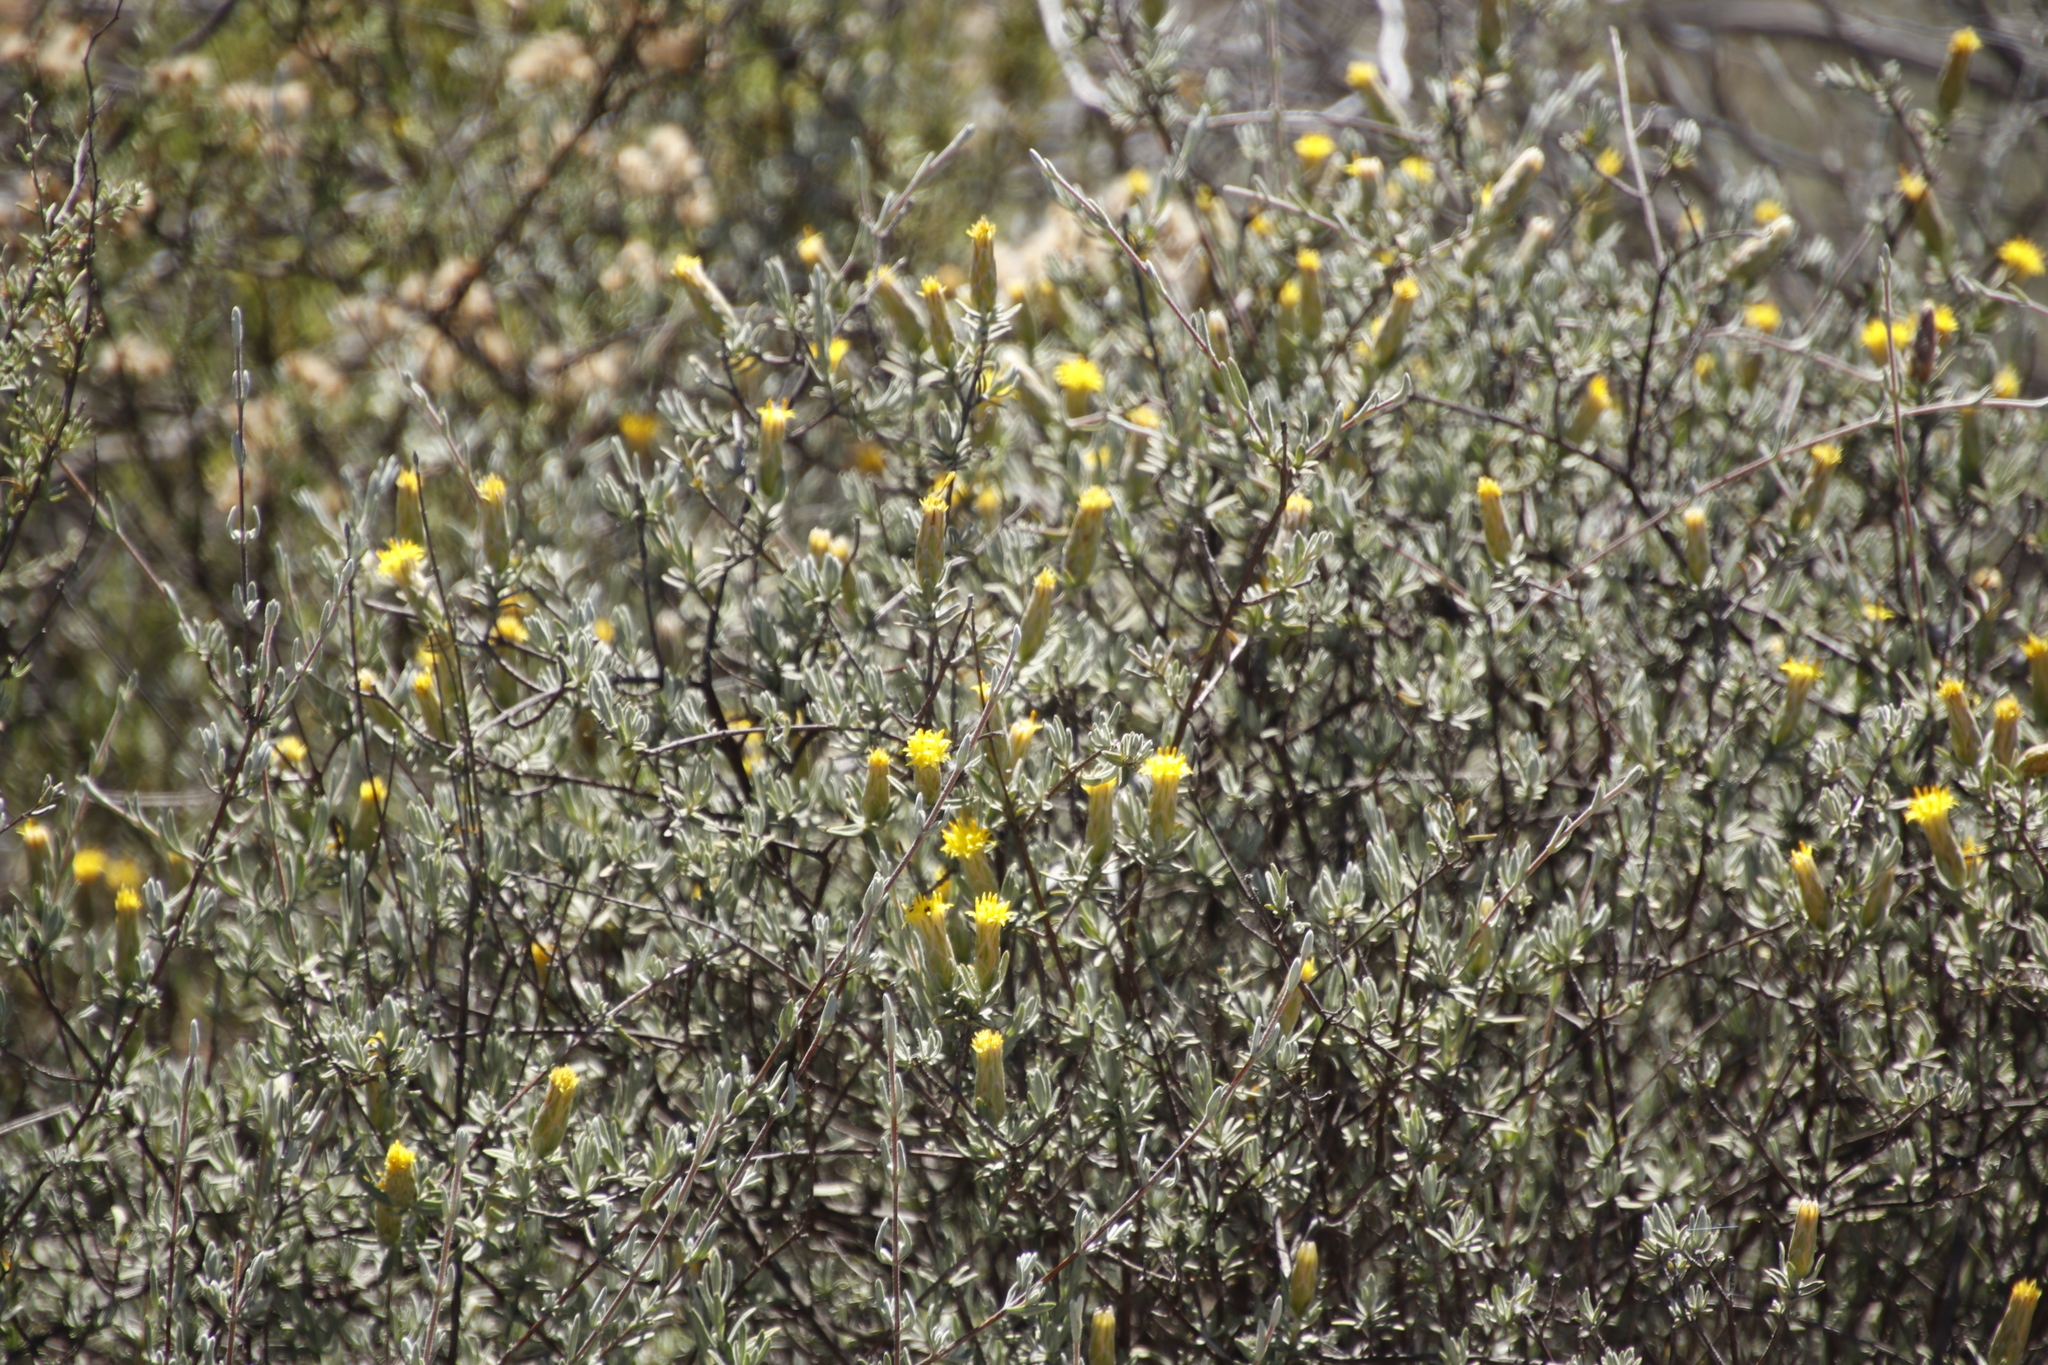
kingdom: Plantae
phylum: Tracheophyta
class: Magnoliopsida
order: Asterales
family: Asteraceae
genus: Pteronia
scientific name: Pteronia cinerea
